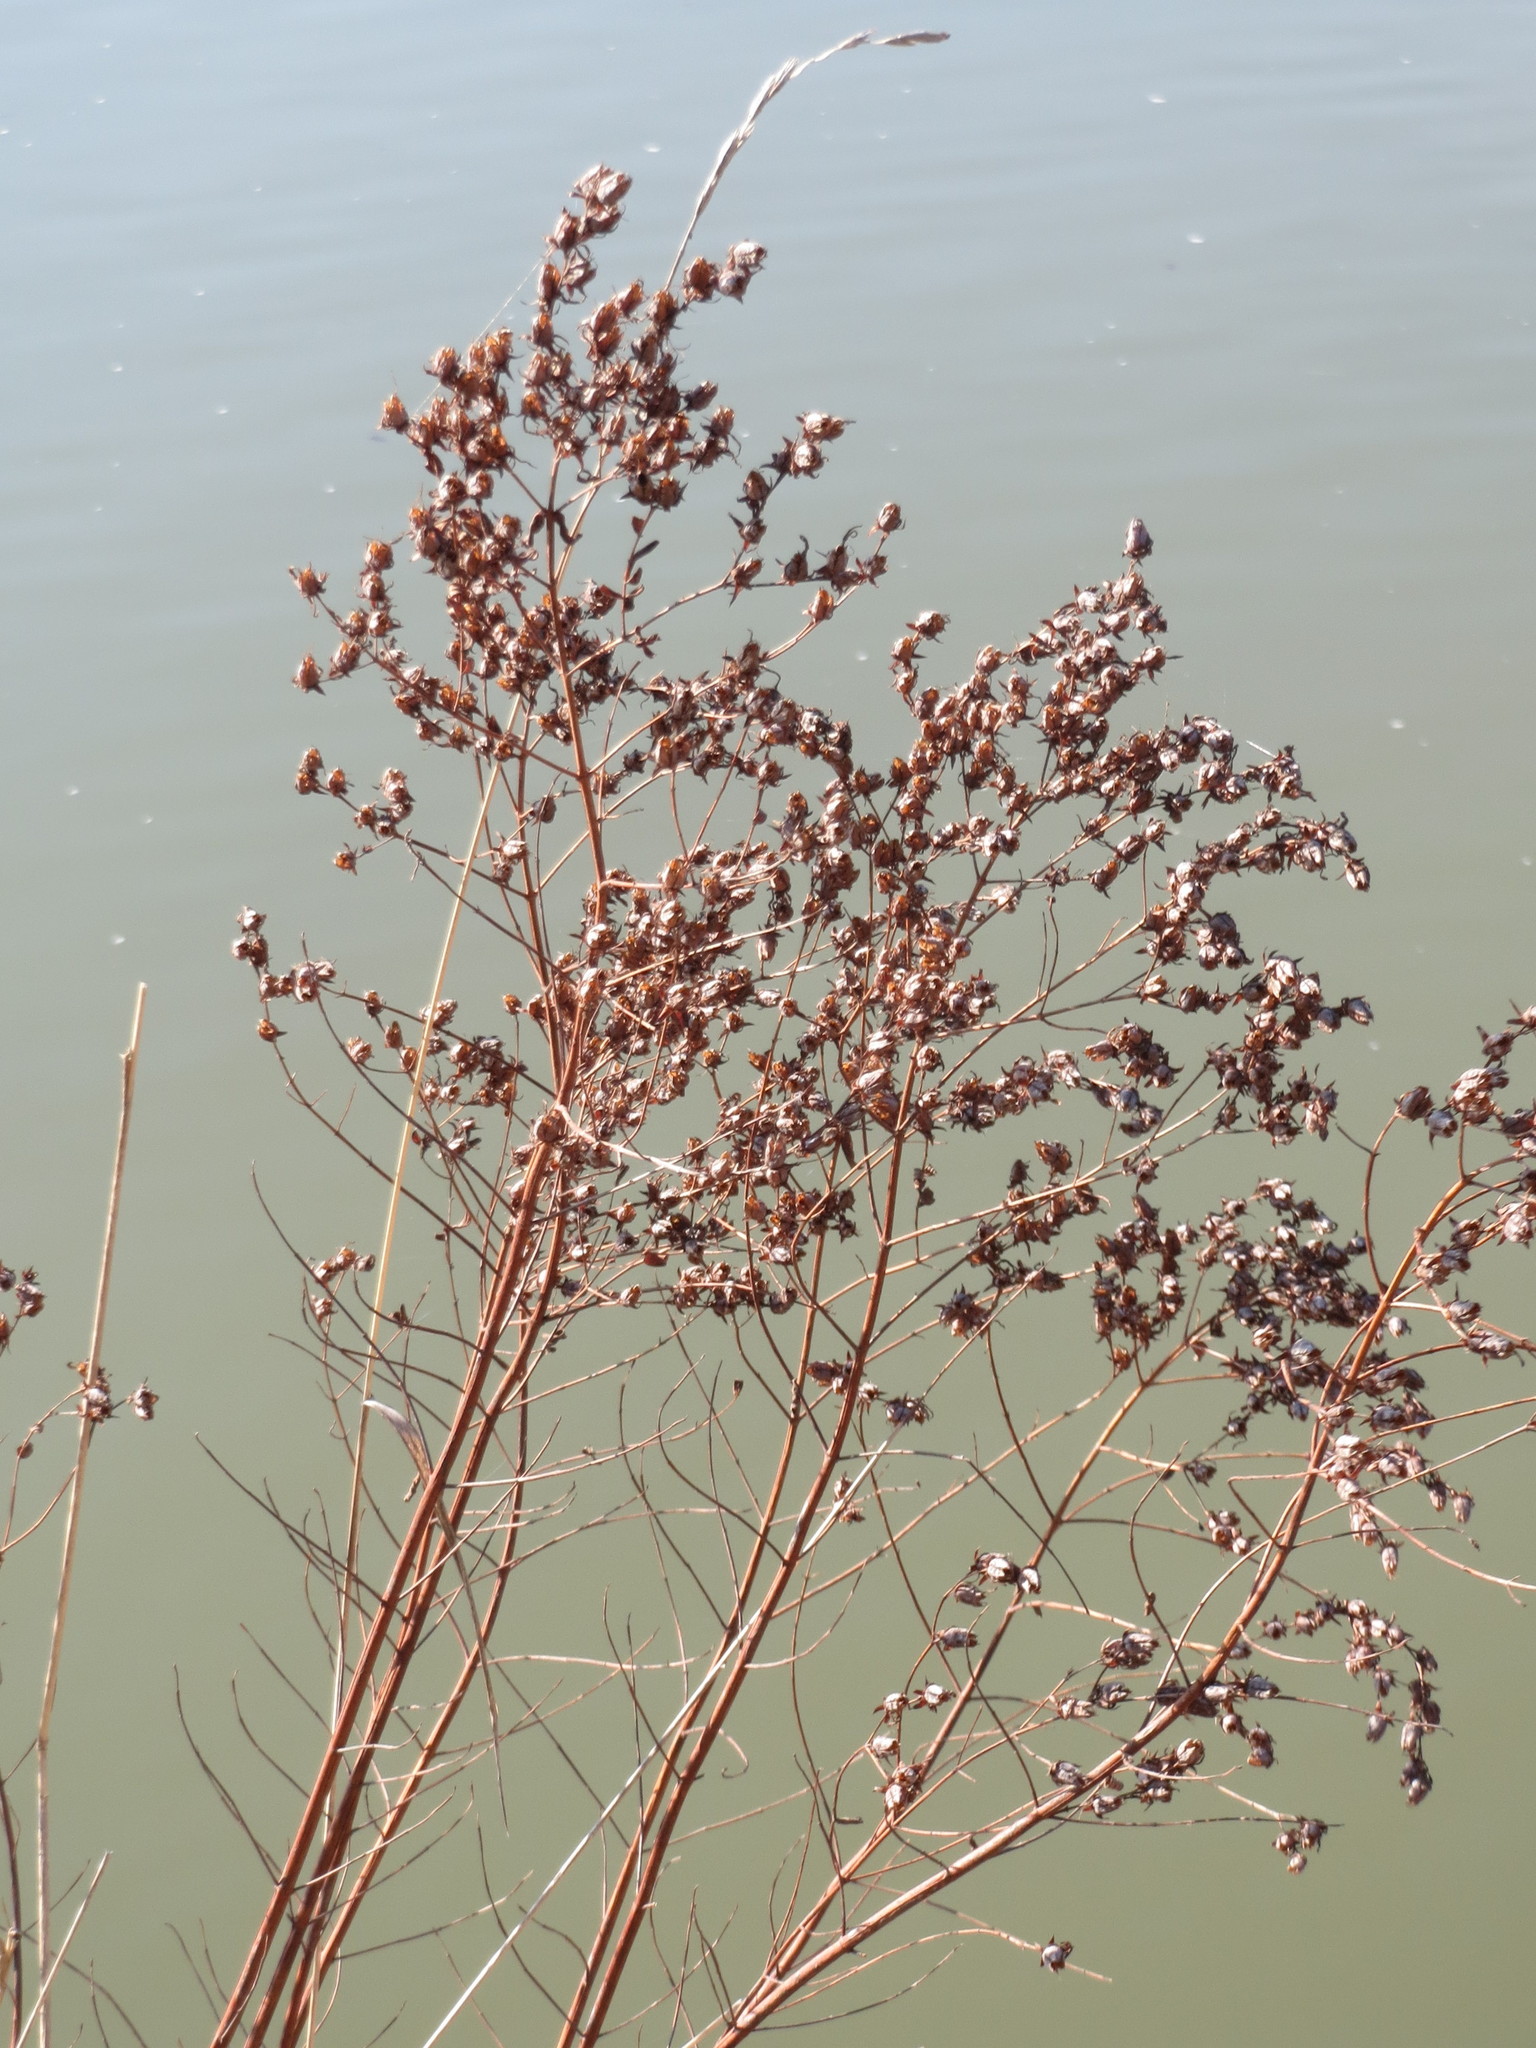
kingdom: Plantae
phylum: Tracheophyta
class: Magnoliopsida
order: Malpighiales
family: Hypericaceae
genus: Hypericum
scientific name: Hypericum perforatum
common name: Common st. johnswort
